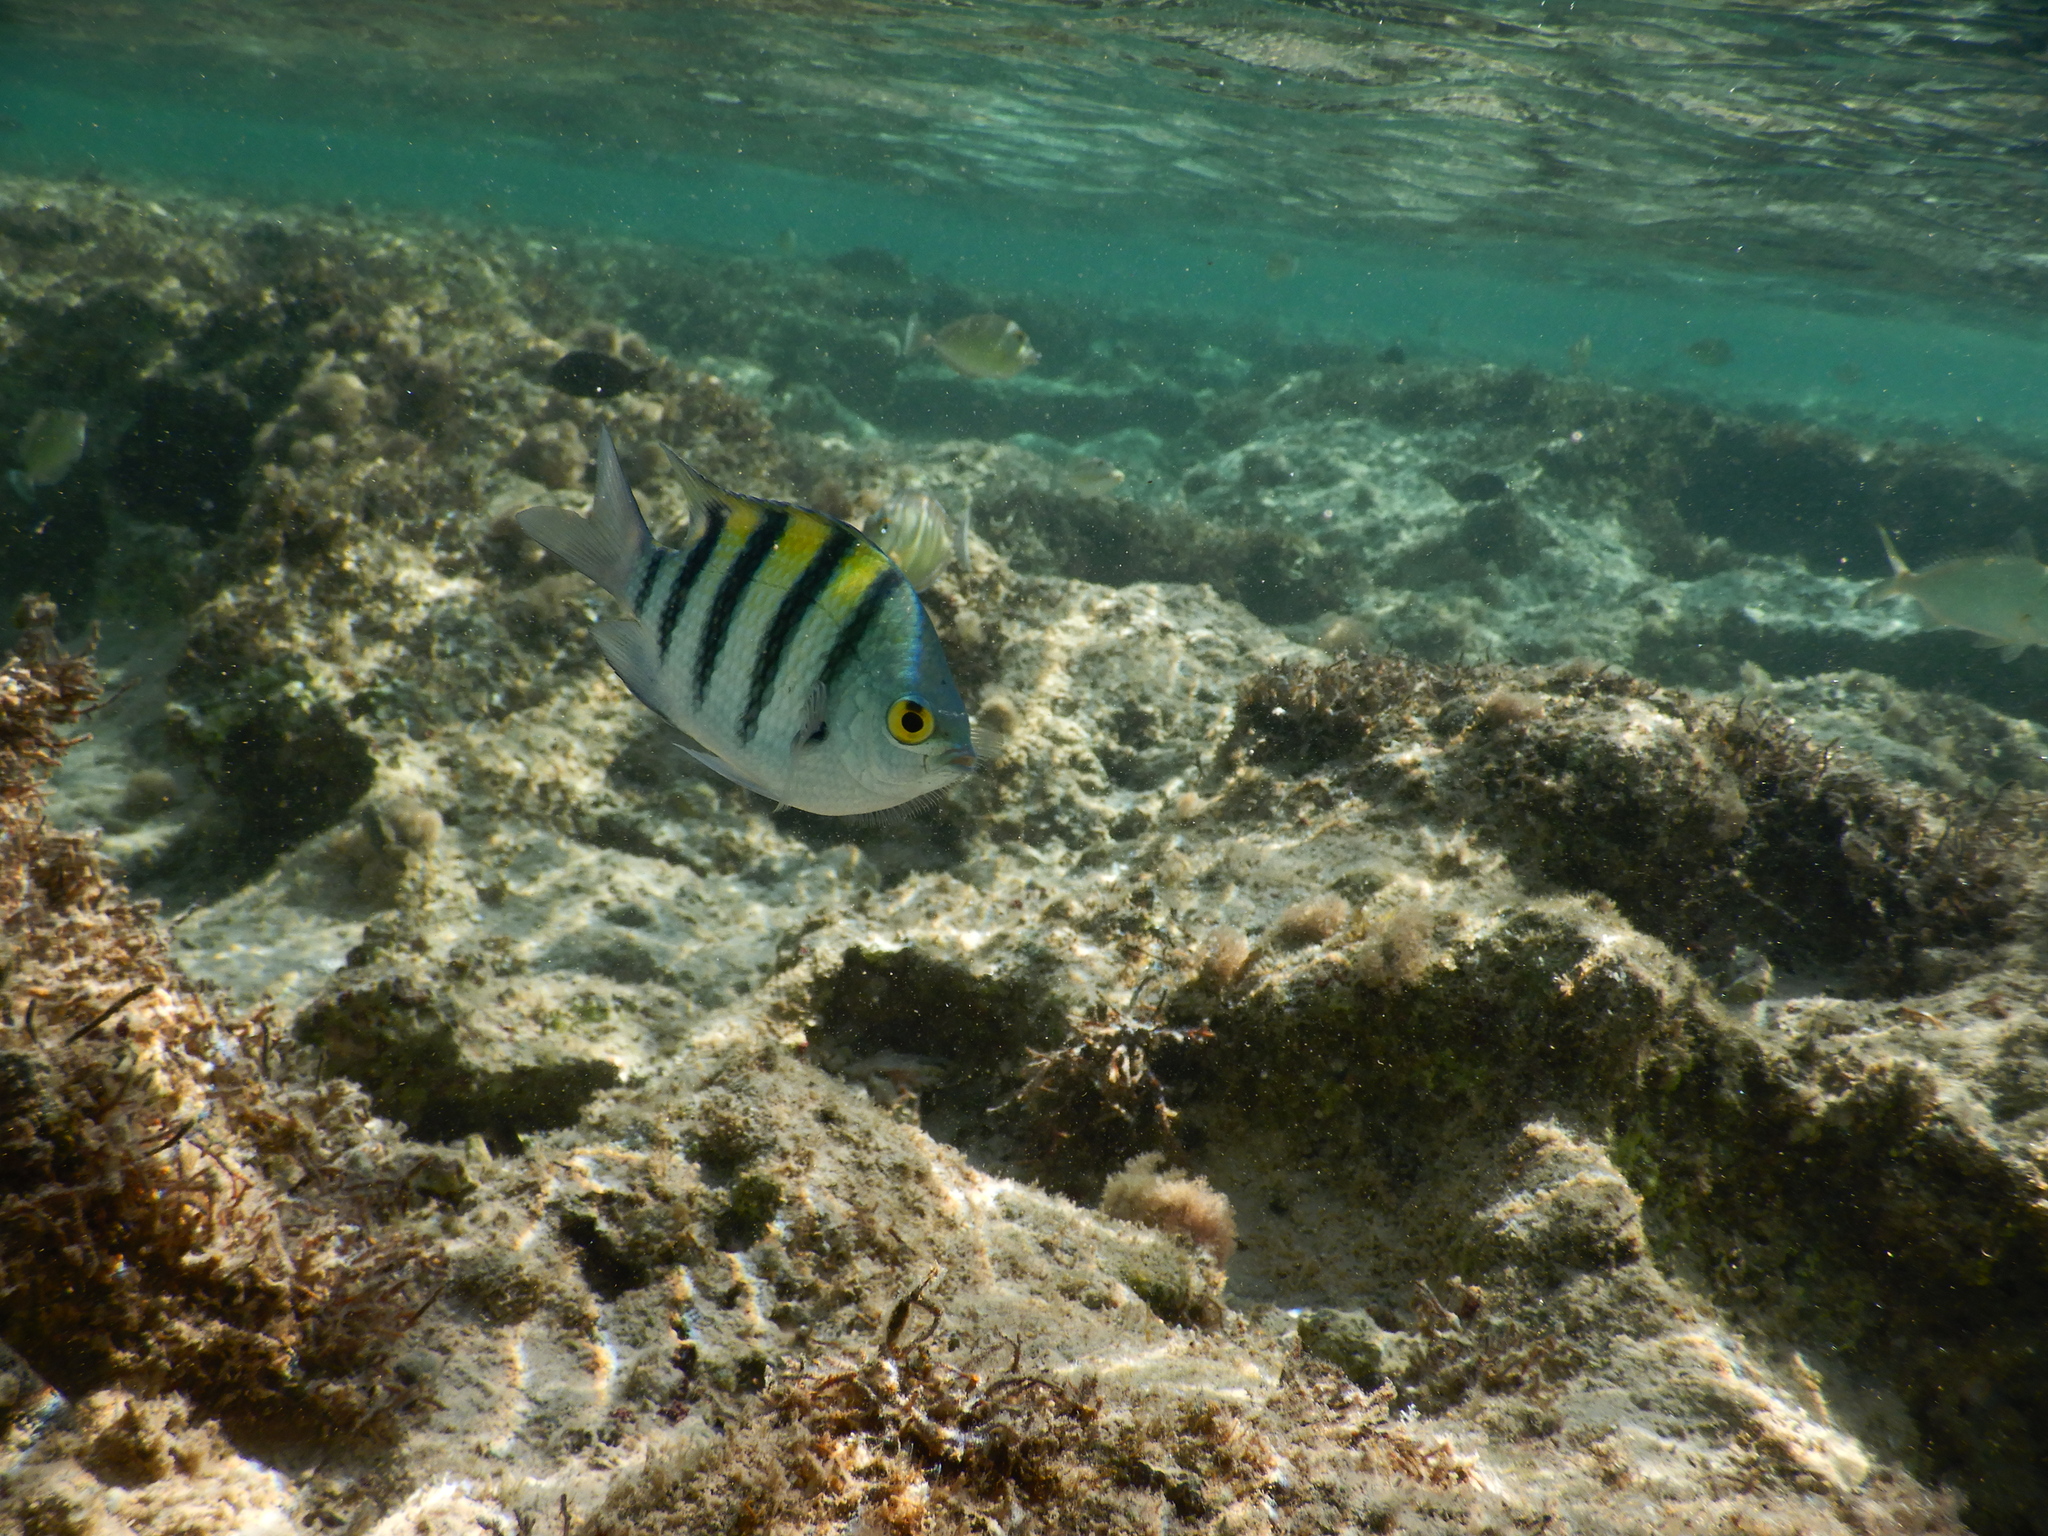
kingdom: Animalia
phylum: Chordata
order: Perciformes
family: Pomacentridae
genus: Abudefduf
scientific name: Abudefduf vaigiensis
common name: Indo-pacific sergeant
